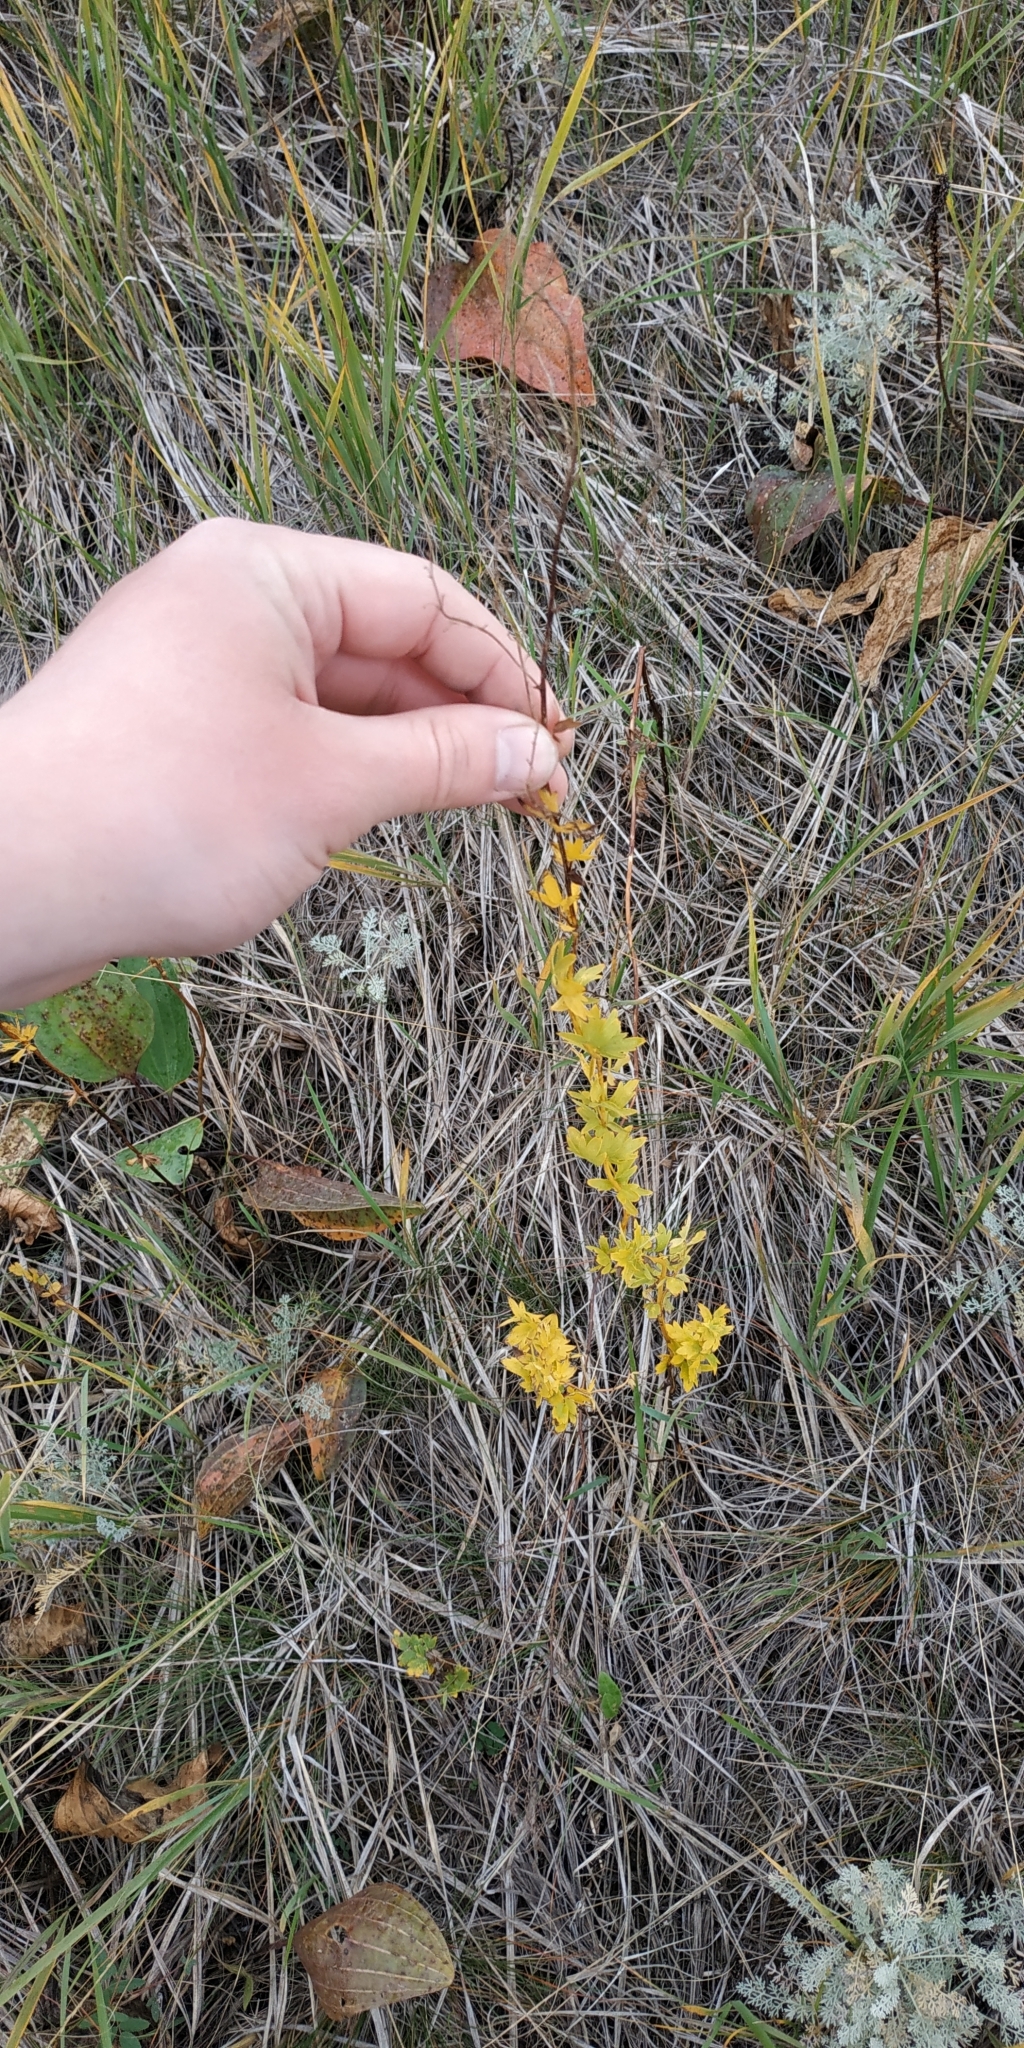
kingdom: Plantae
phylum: Tracheophyta
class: Magnoliopsida
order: Ranunculales
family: Ranunculaceae
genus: Thalictrum
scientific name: Thalictrum simplex
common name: Small meadow-rue
